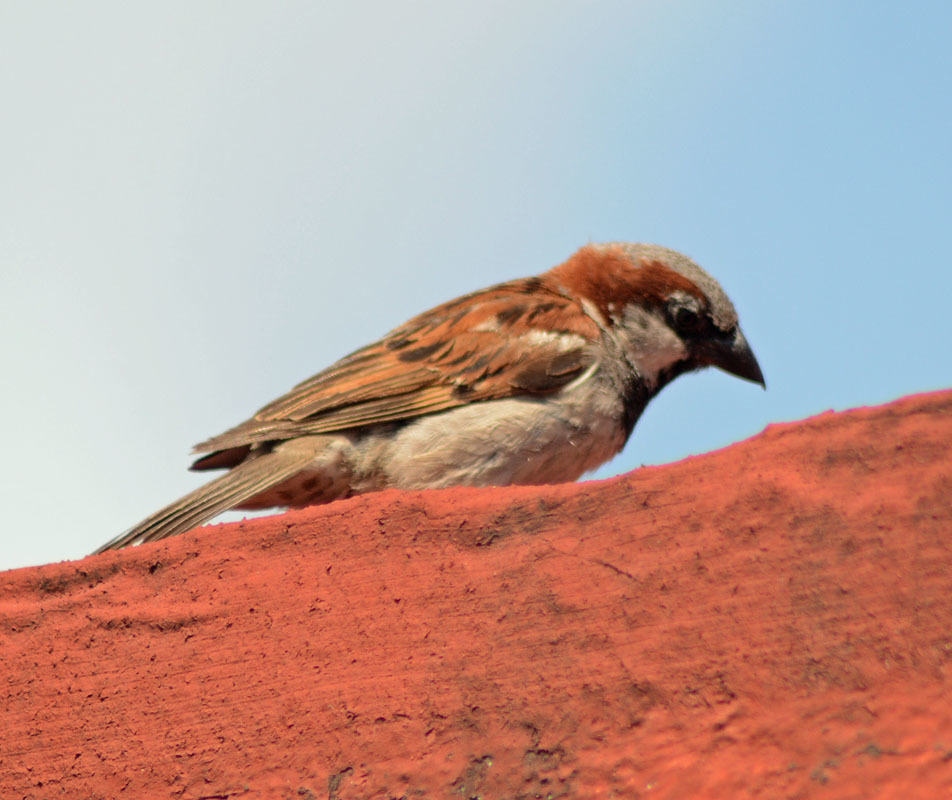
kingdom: Animalia
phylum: Chordata
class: Aves
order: Passeriformes
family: Passeridae
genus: Passer
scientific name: Passer domesticus
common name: House sparrow
